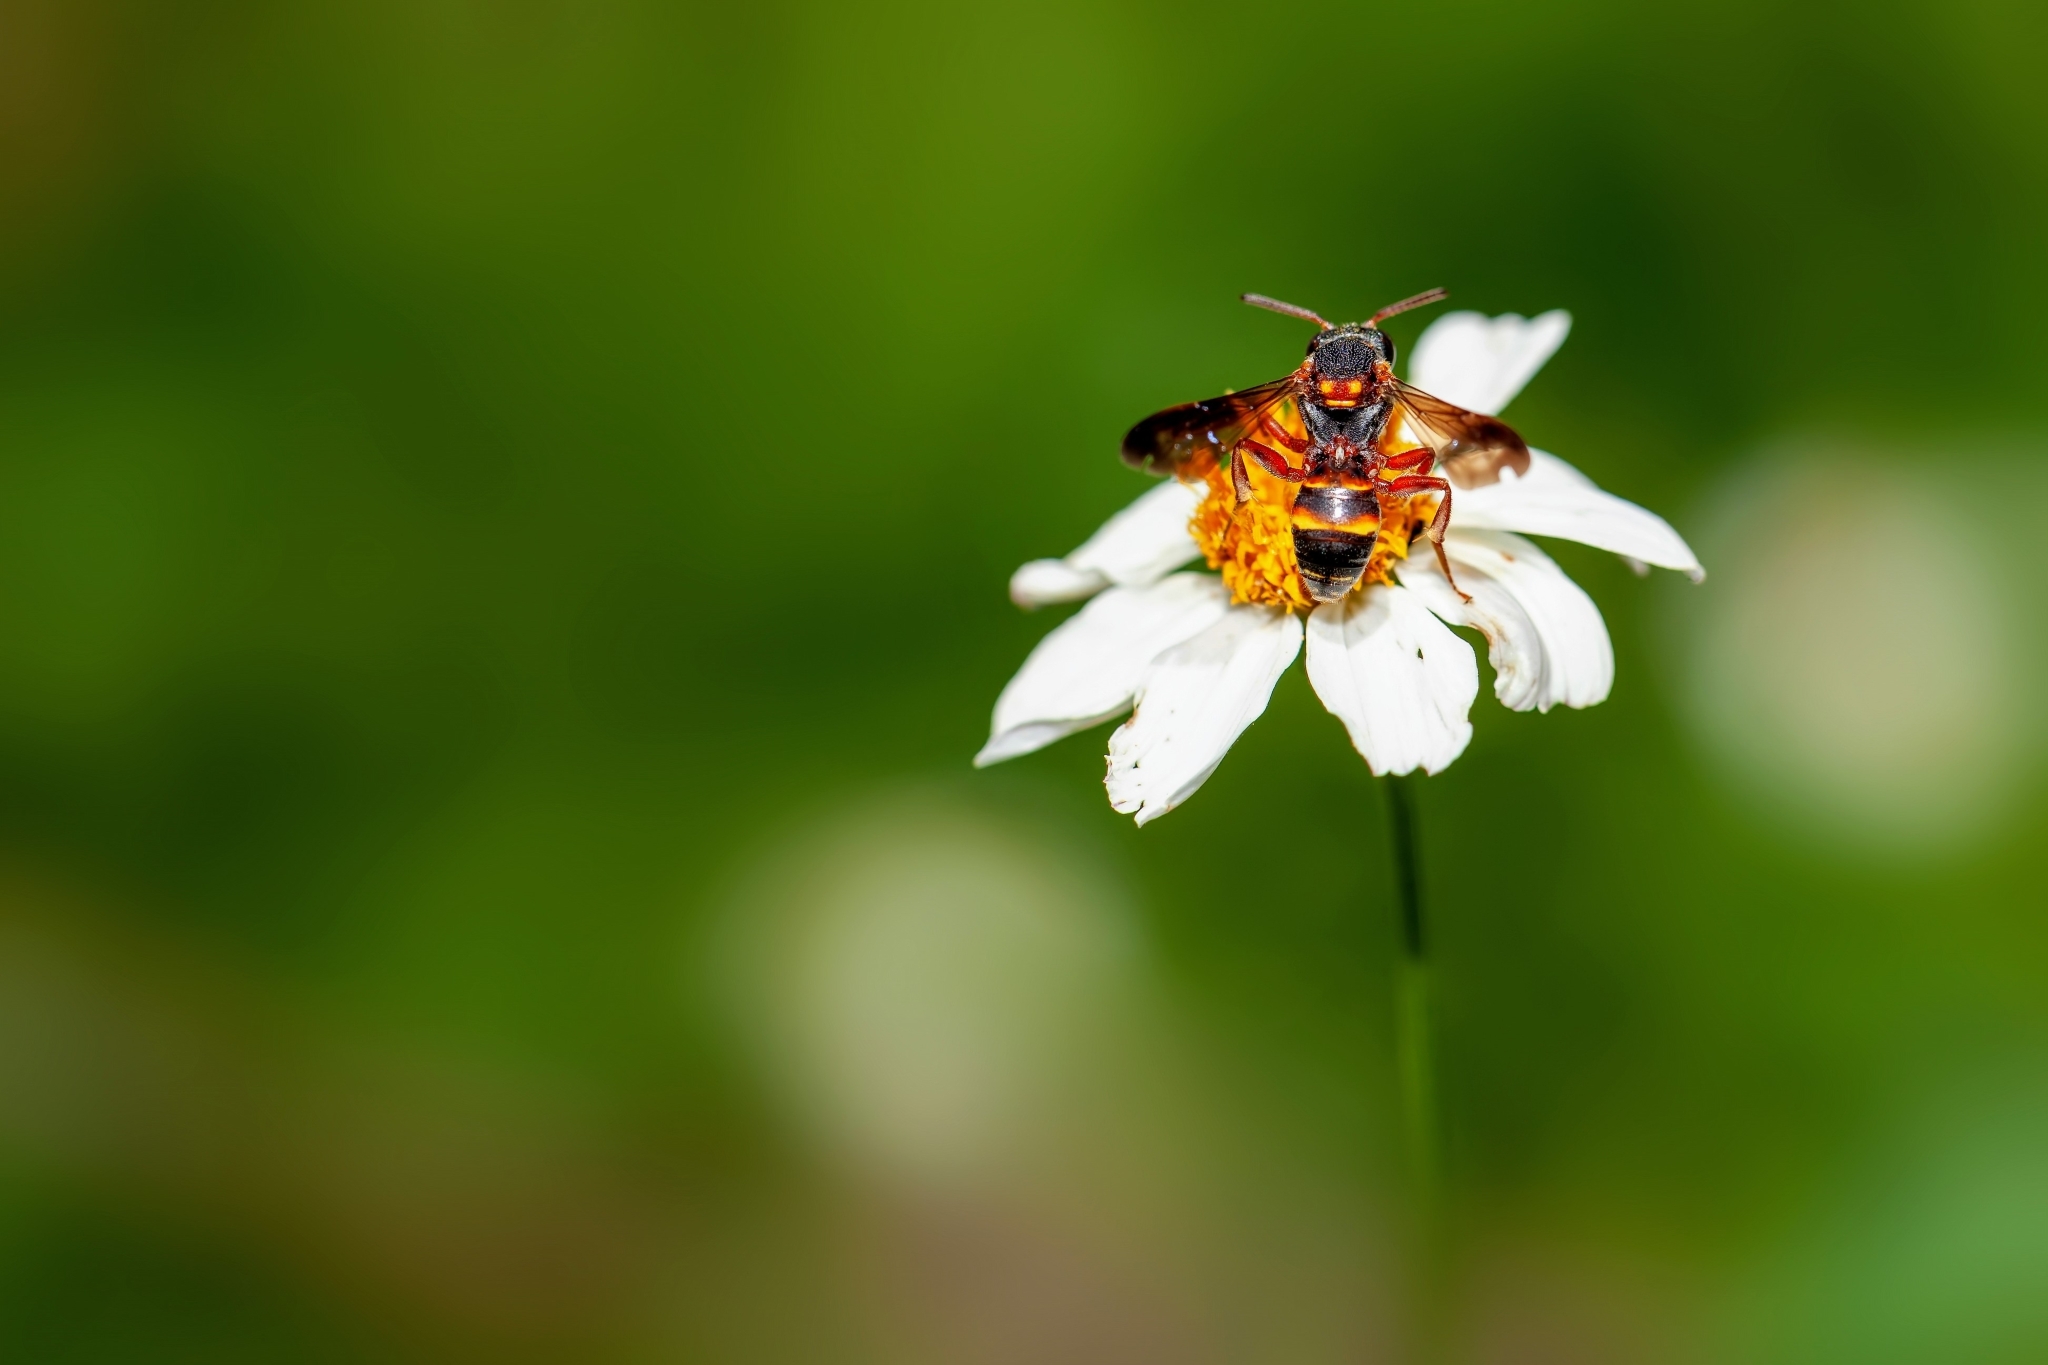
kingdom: Animalia
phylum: Arthropoda
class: Insecta
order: Hymenoptera
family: Apidae
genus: Nomada
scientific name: Nomada fervida
